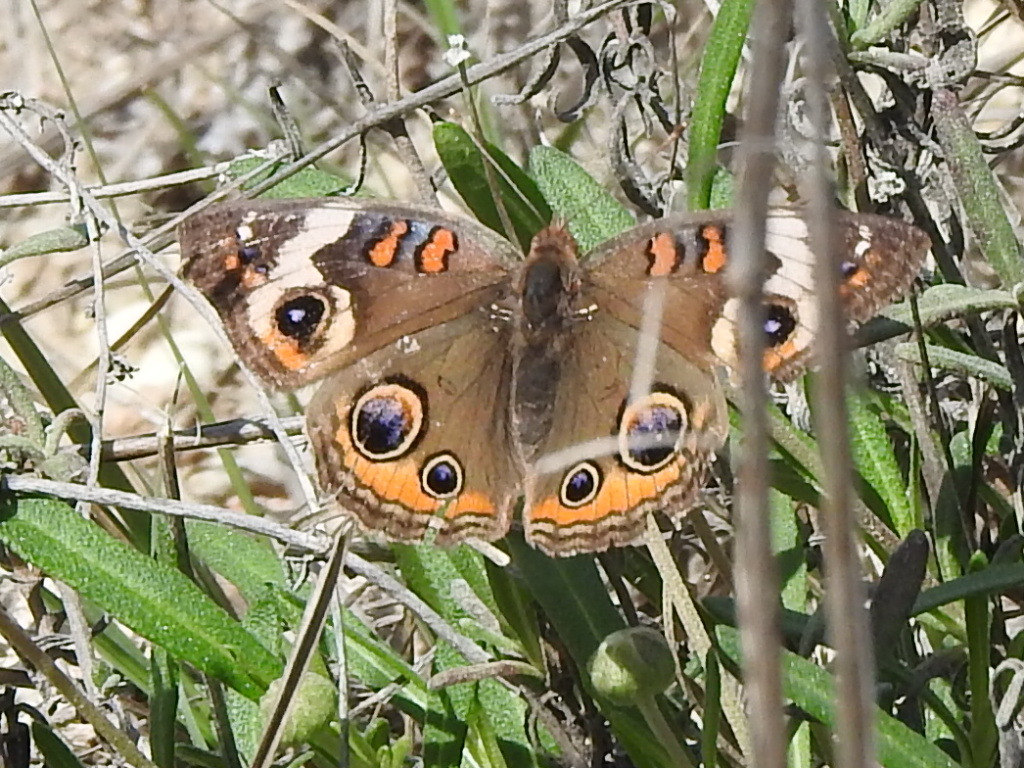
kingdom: Animalia
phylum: Arthropoda
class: Insecta
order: Lepidoptera
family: Nymphalidae
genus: Junonia
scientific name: Junonia coenia
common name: Common buckeye
